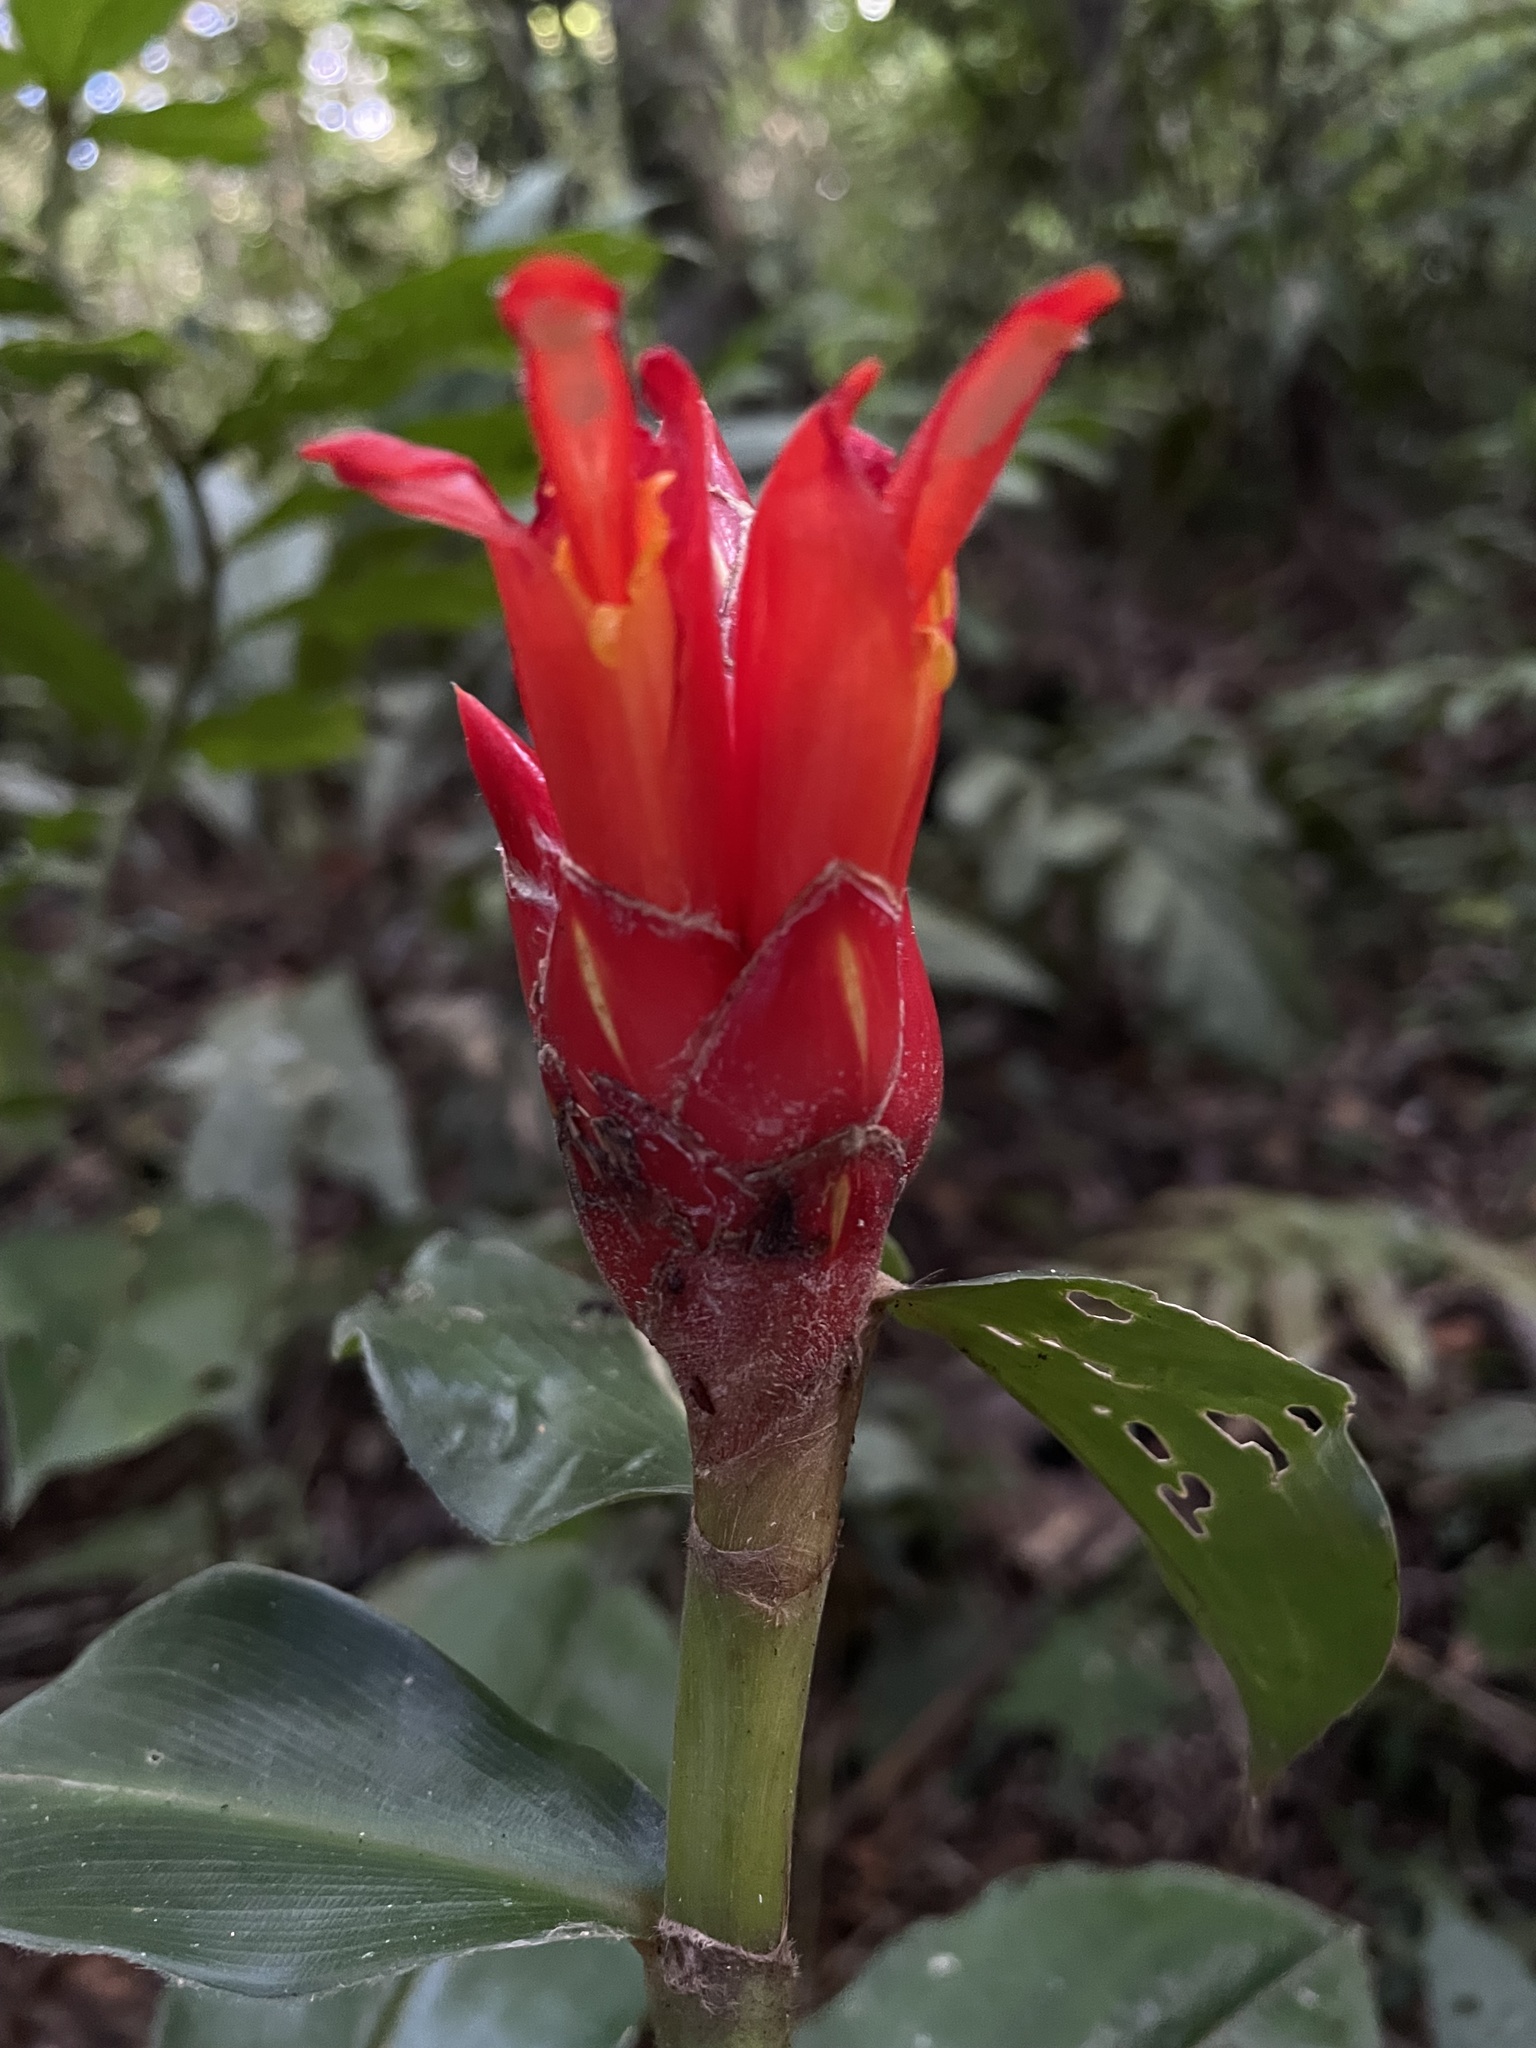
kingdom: Plantae
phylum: Tracheophyta
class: Liliopsida
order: Zingiberales
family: Costaceae
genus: Costus
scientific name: Costus pulverulentus
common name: Spiral ginger
